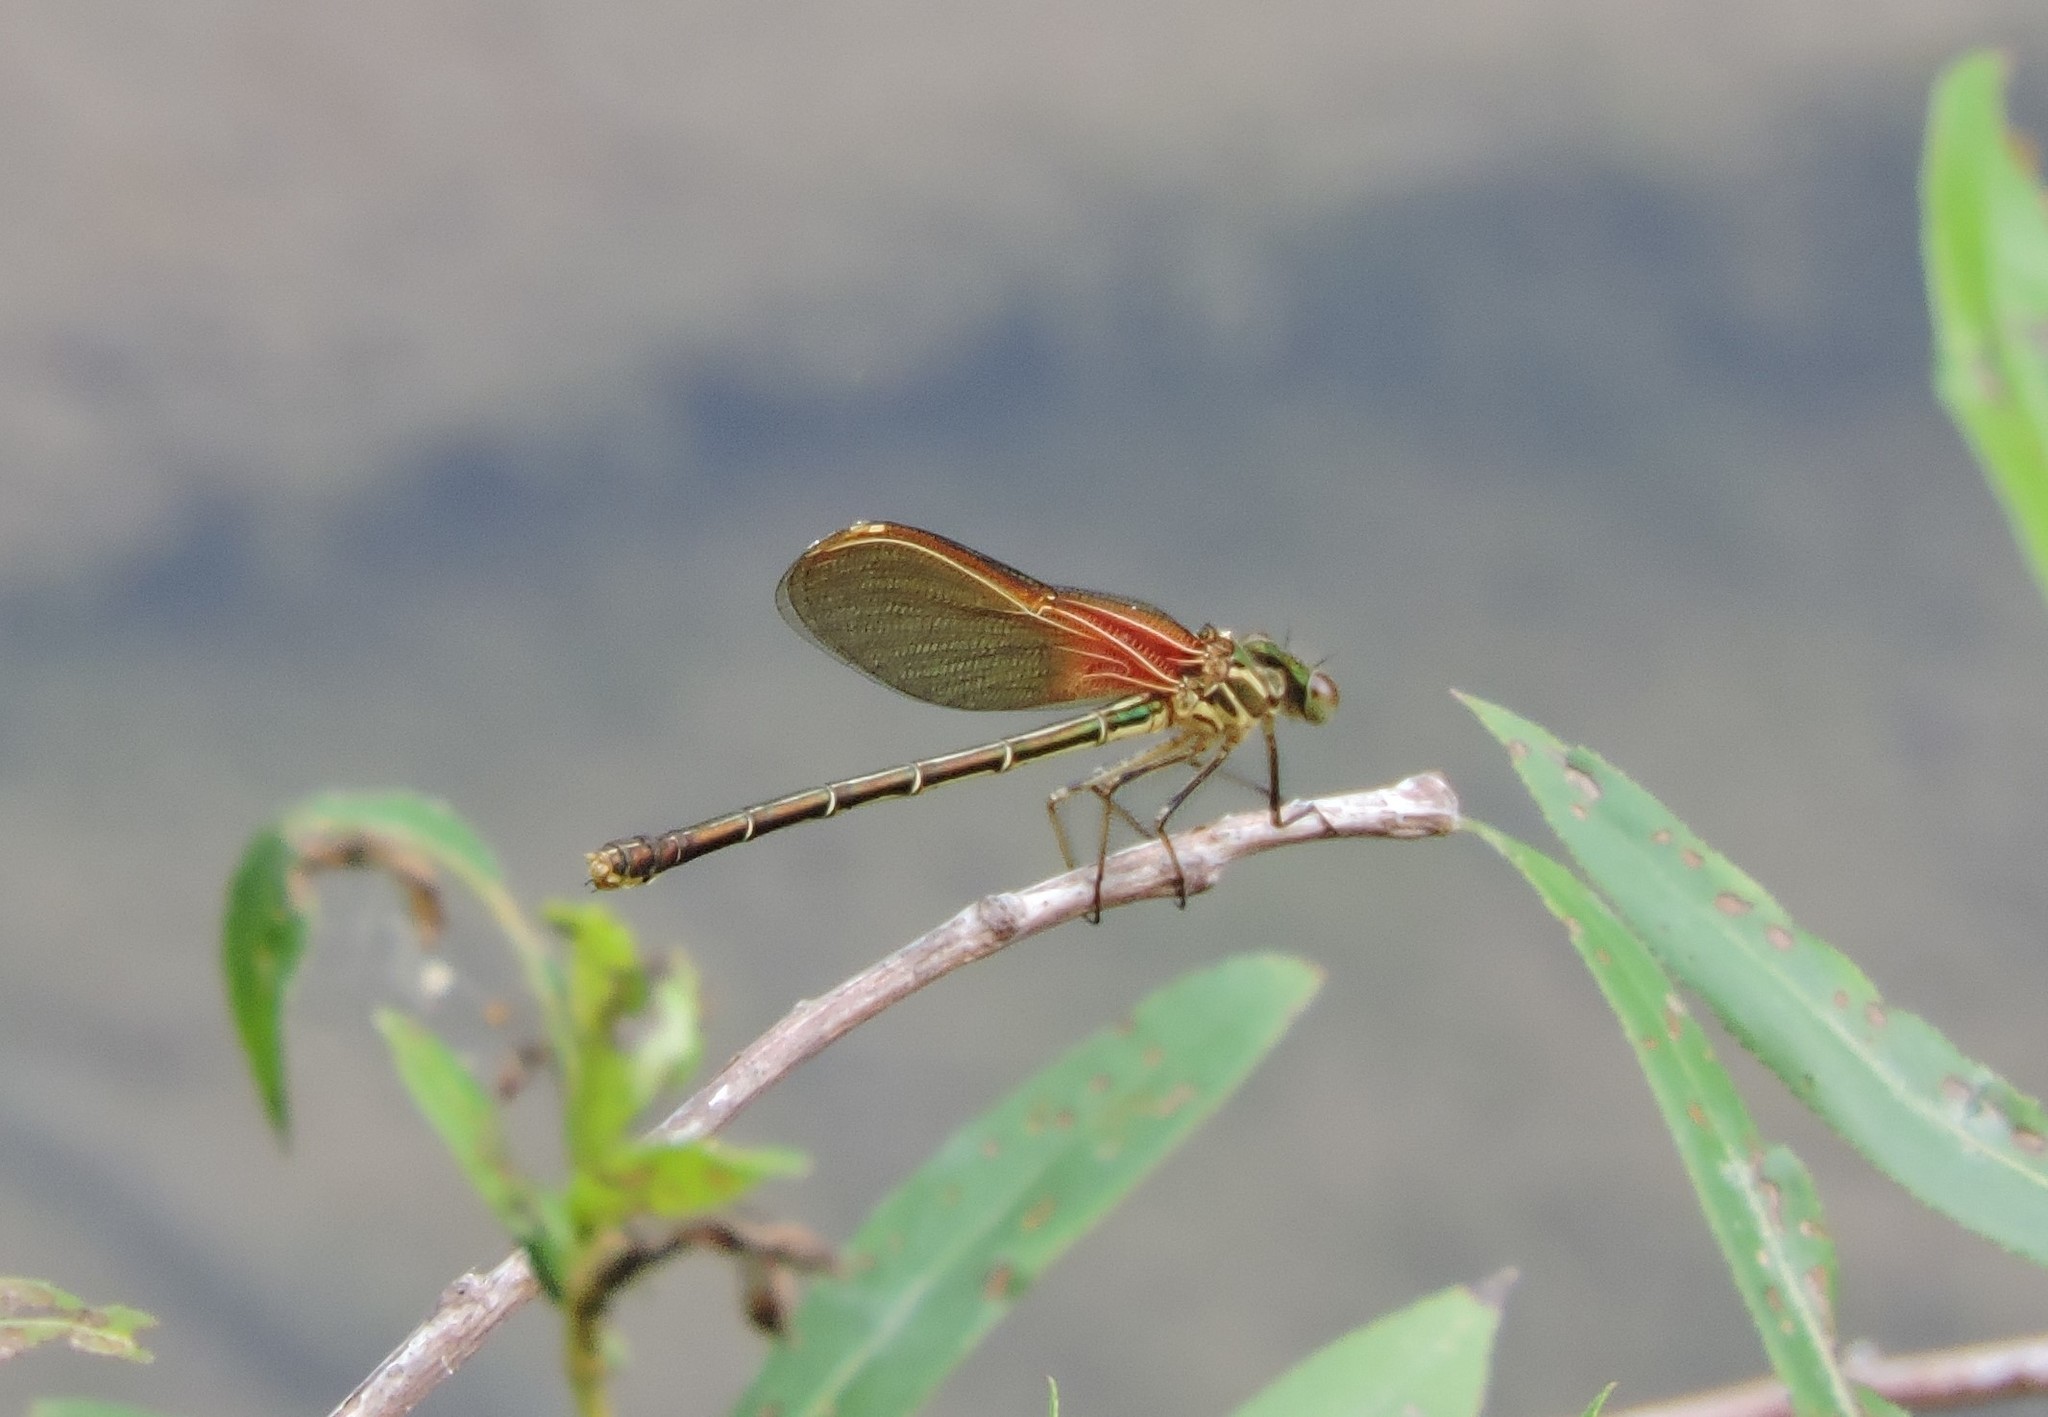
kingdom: Animalia
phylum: Arthropoda
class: Insecta
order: Odonata
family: Calopterygidae
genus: Hetaerina
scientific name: Hetaerina americana
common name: American rubyspot
